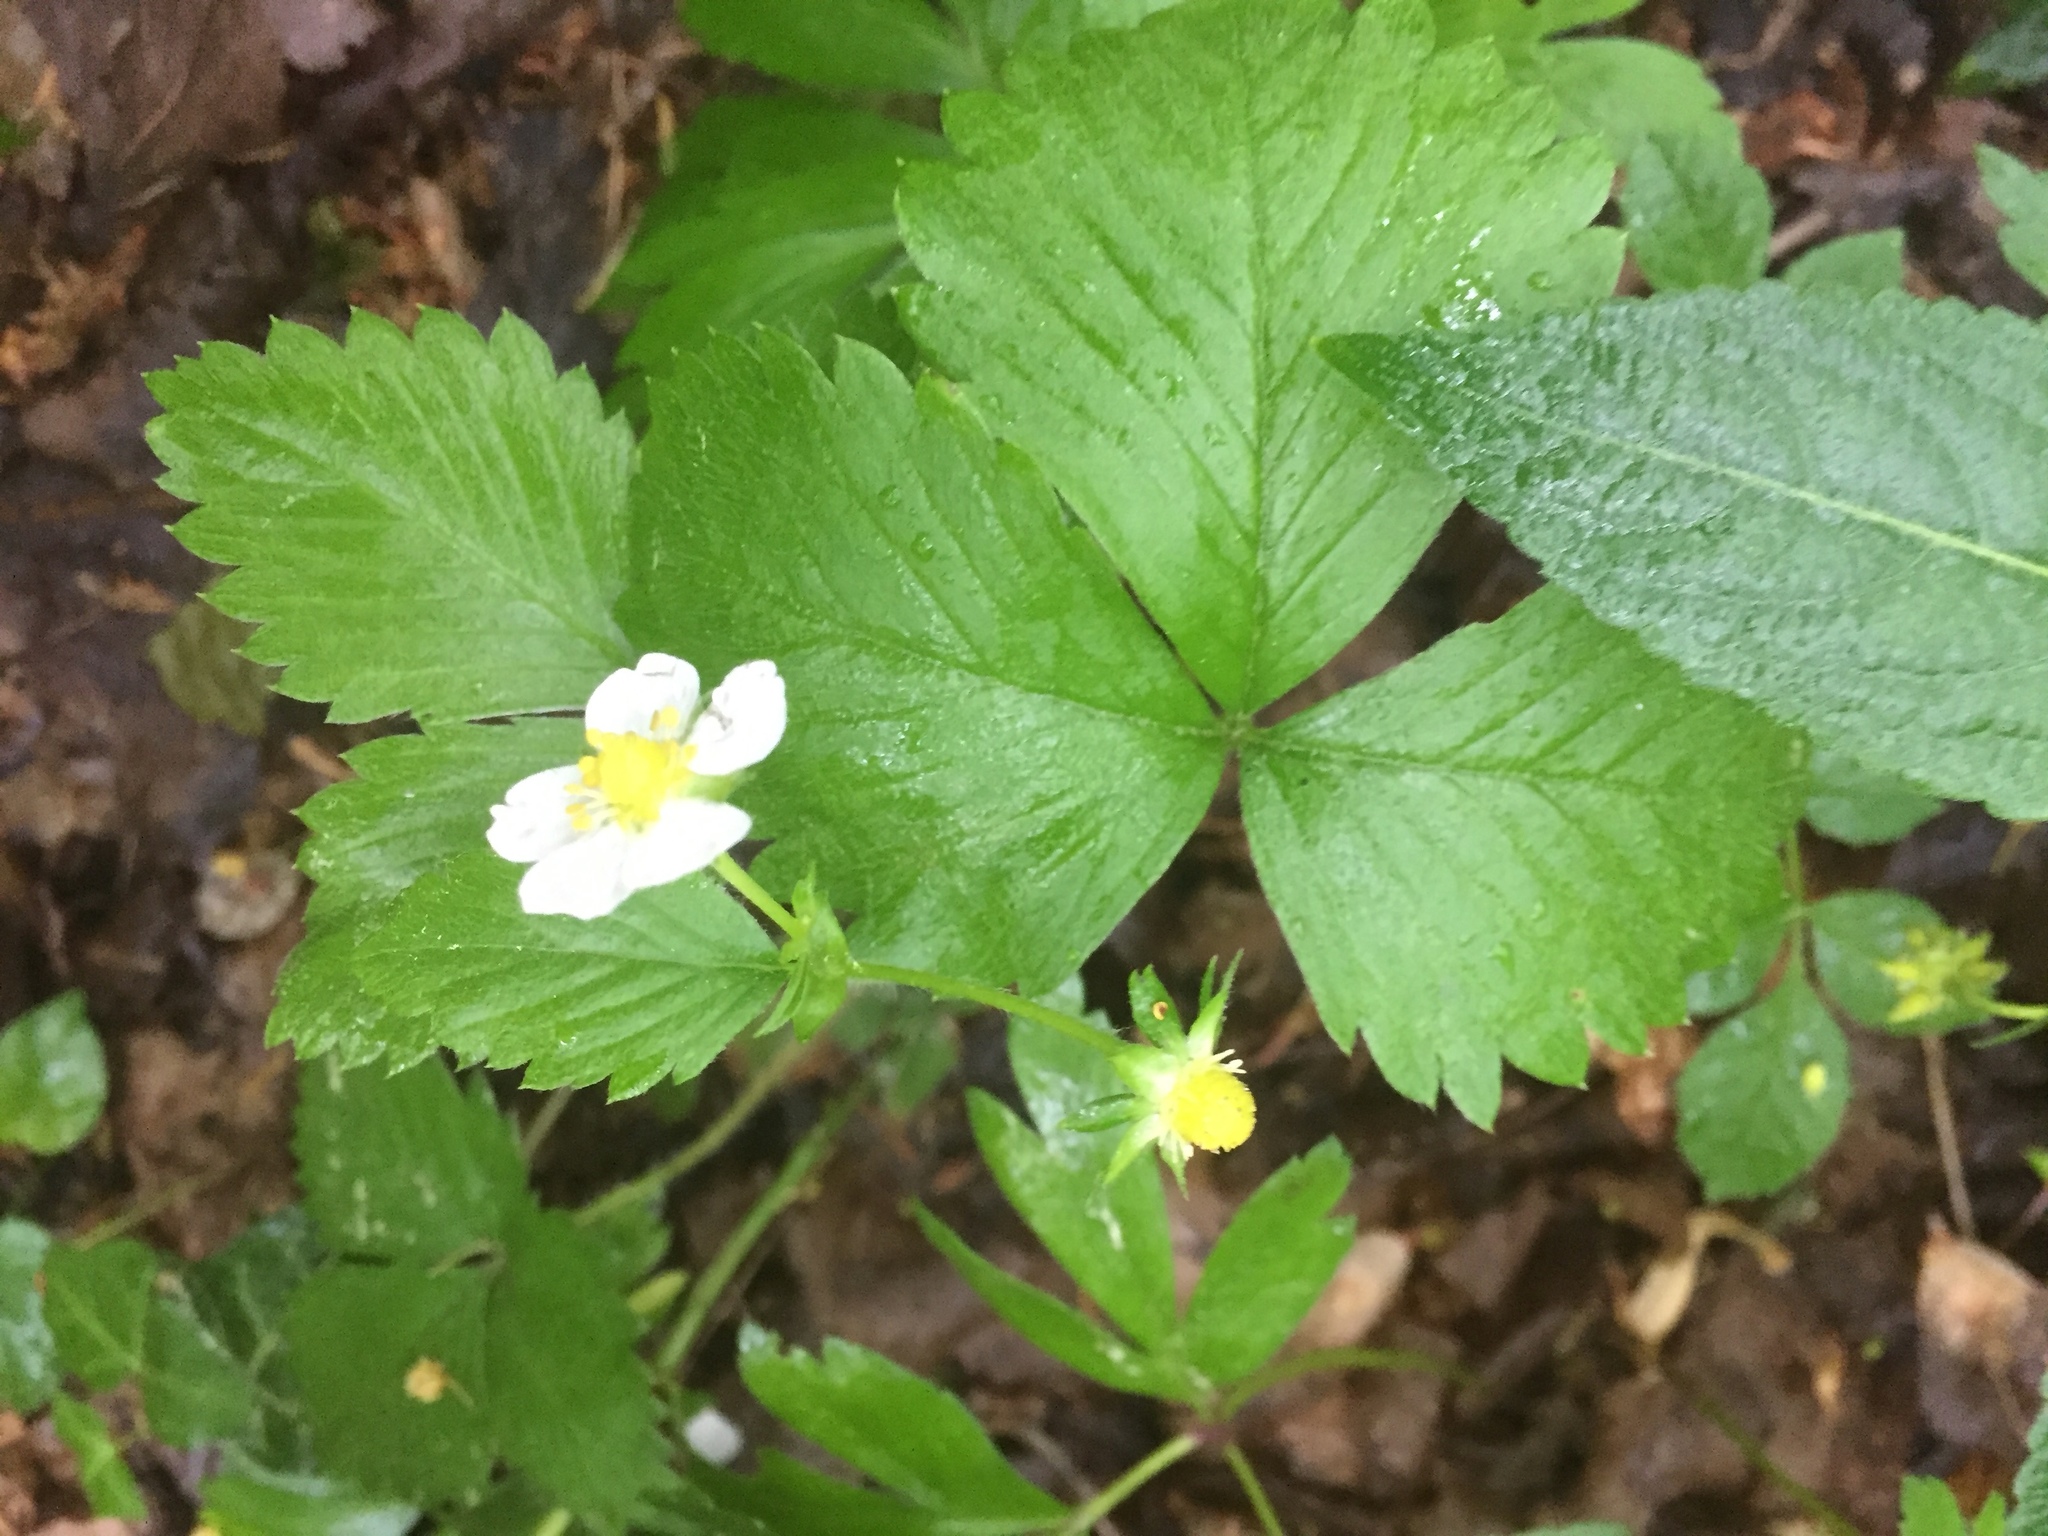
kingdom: Plantae
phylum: Tracheophyta
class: Magnoliopsida
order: Rosales
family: Rosaceae
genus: Fragaria
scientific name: Fragaria vesca
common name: Wild strawberry
